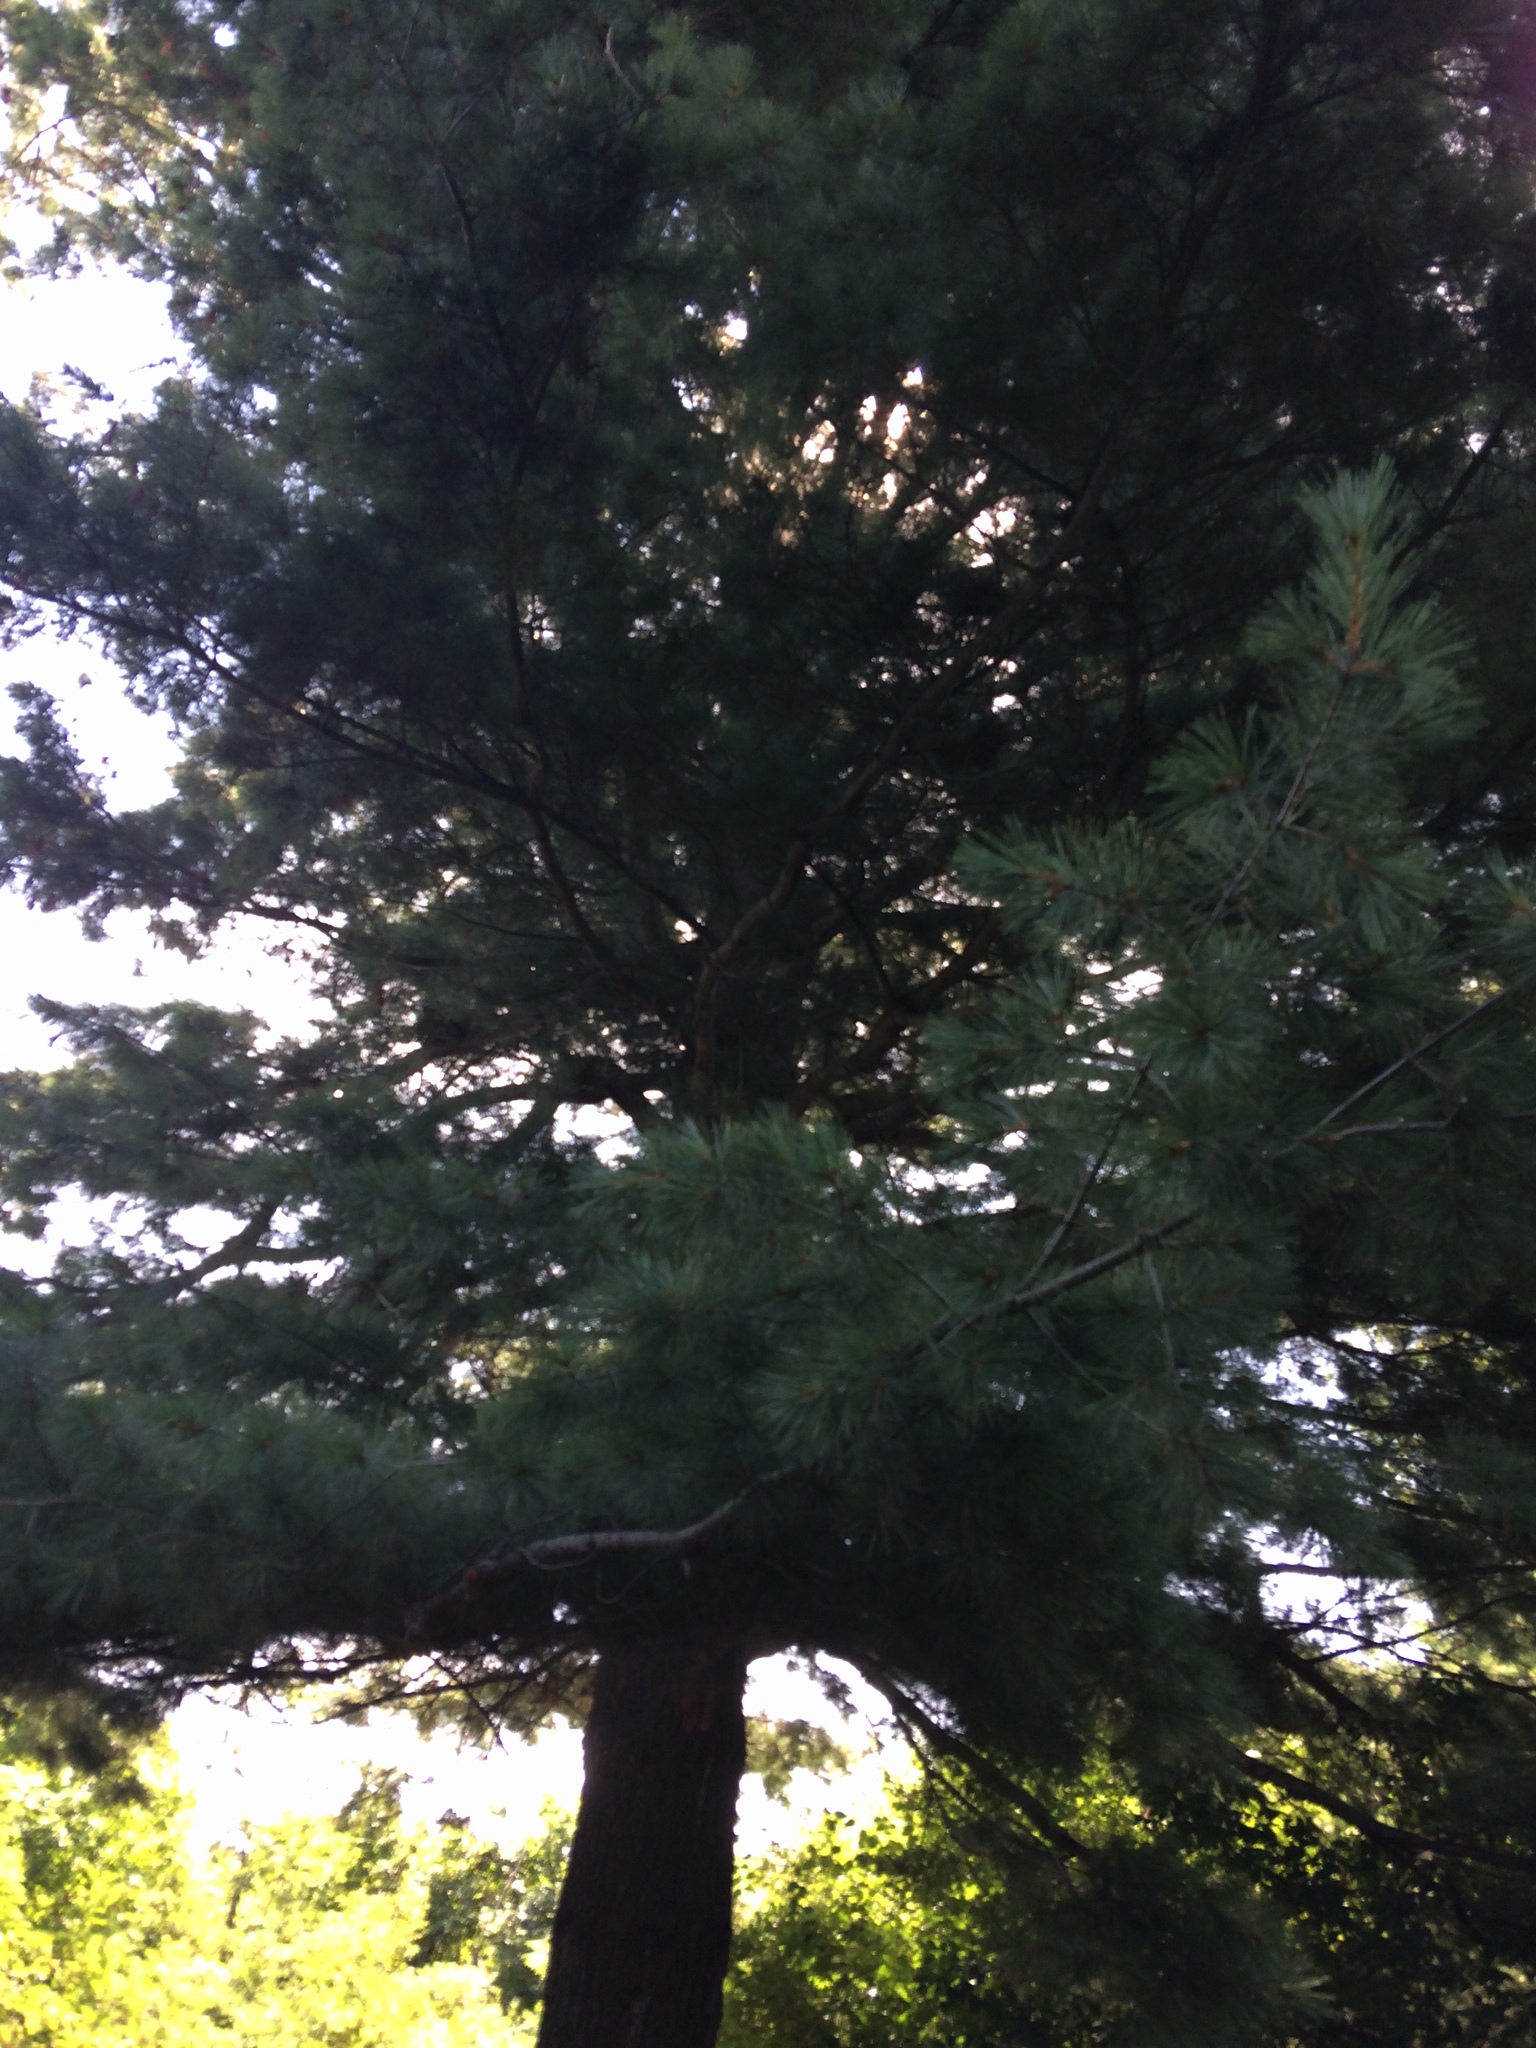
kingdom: Plantae
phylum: Tracheophyta
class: Pinopsida
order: Pinales
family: Pinaceae
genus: Pinus
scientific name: Pinus strobus
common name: Weymouth pine
